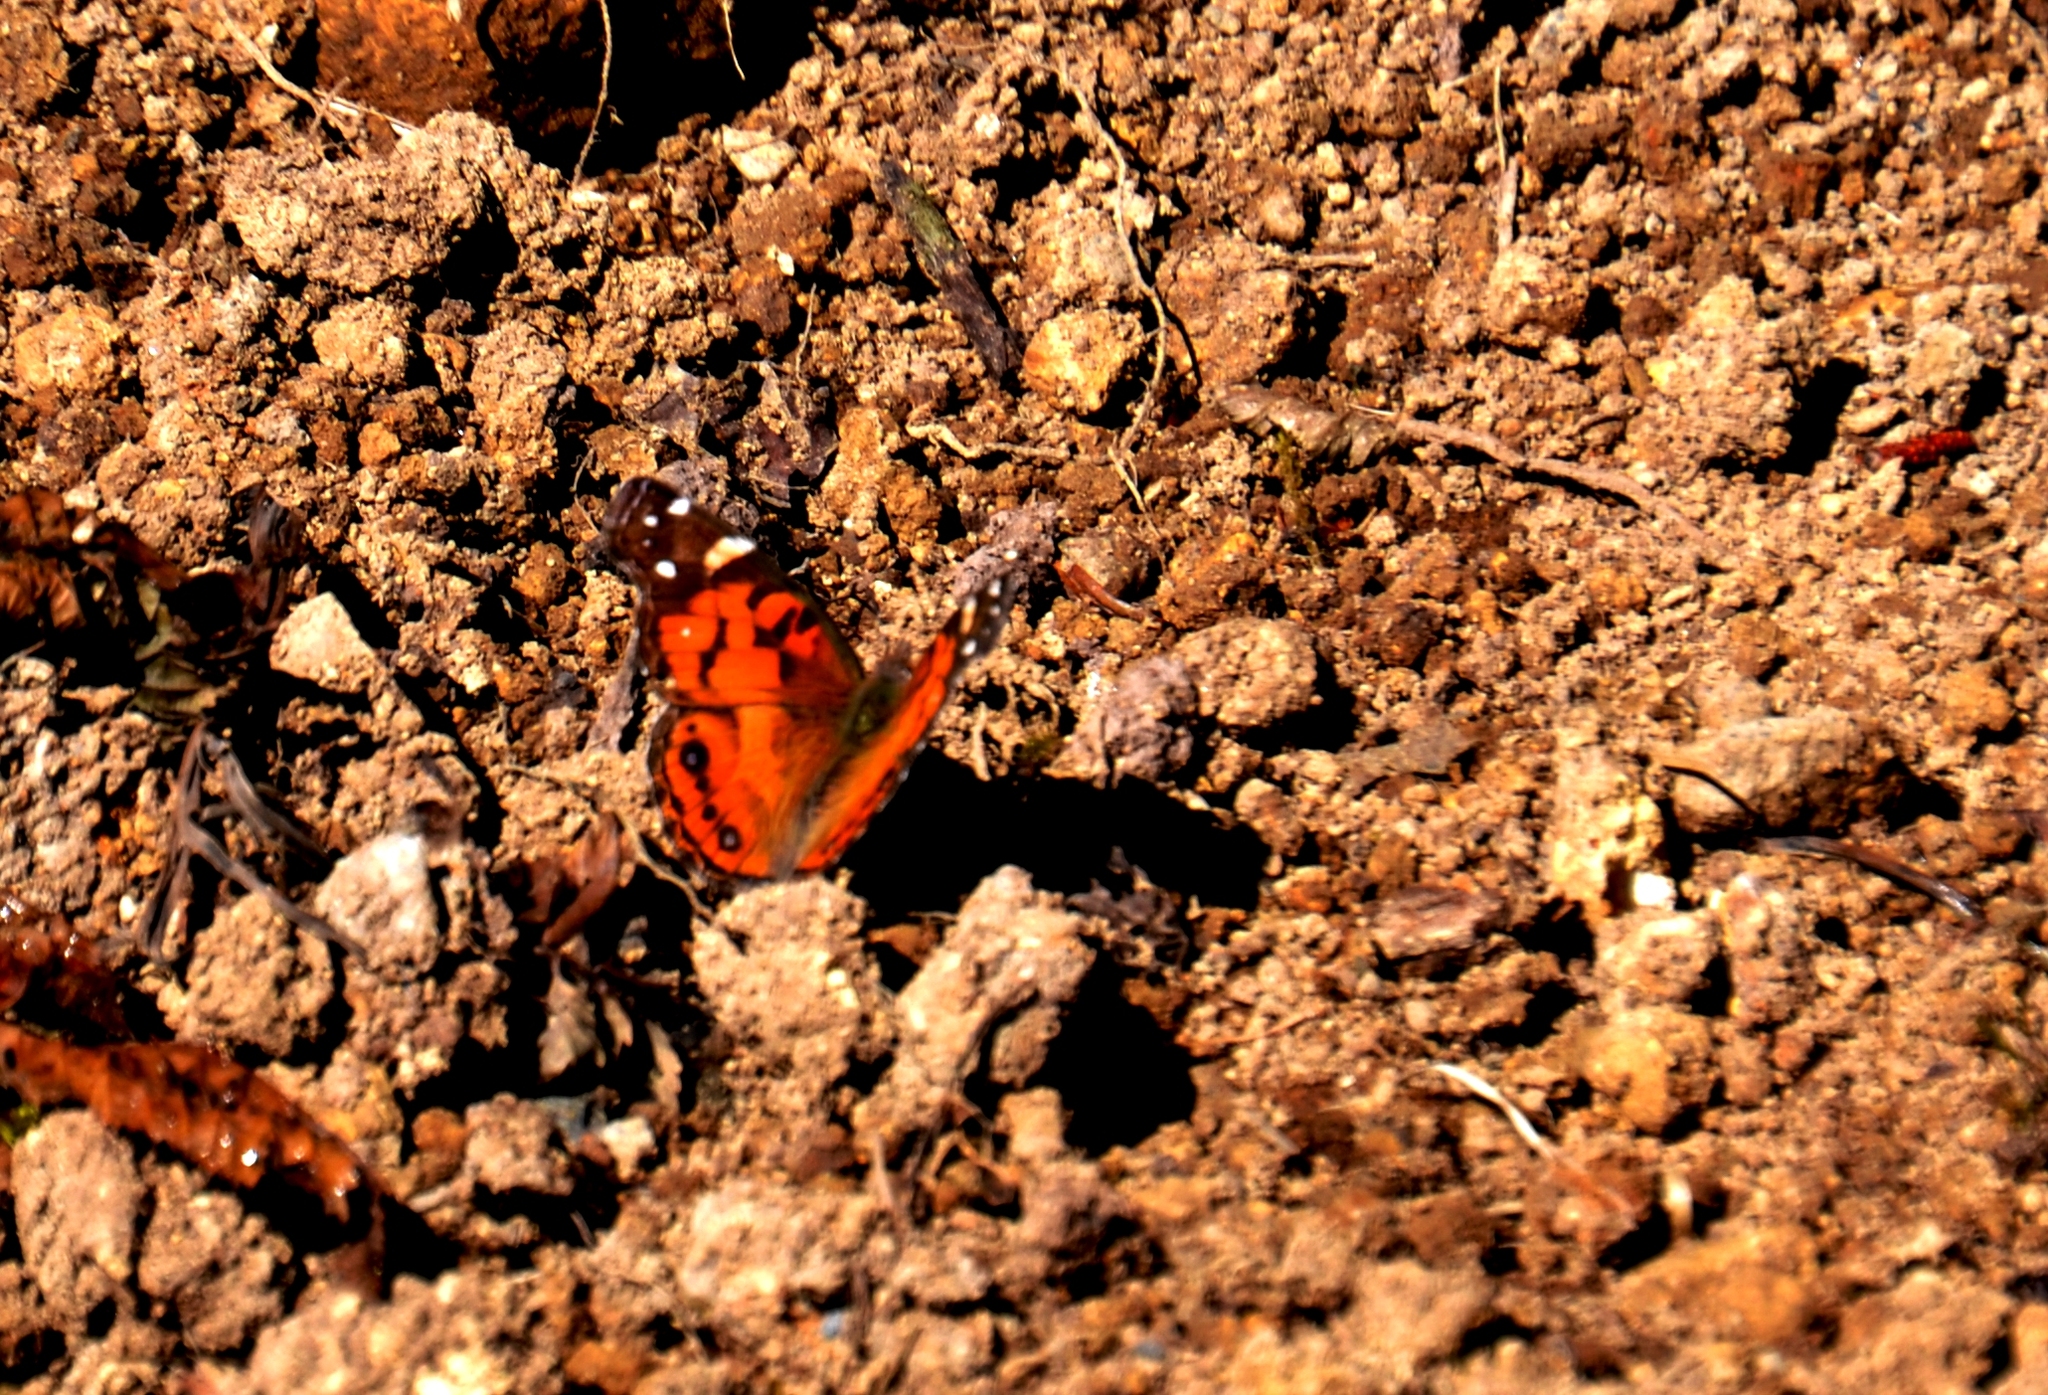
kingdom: Animalia
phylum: Arthropoda
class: Insecta
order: Lepidoptera
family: Nymphalidae
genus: Vanessa
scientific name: Vanessa virginiensis
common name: American lady
